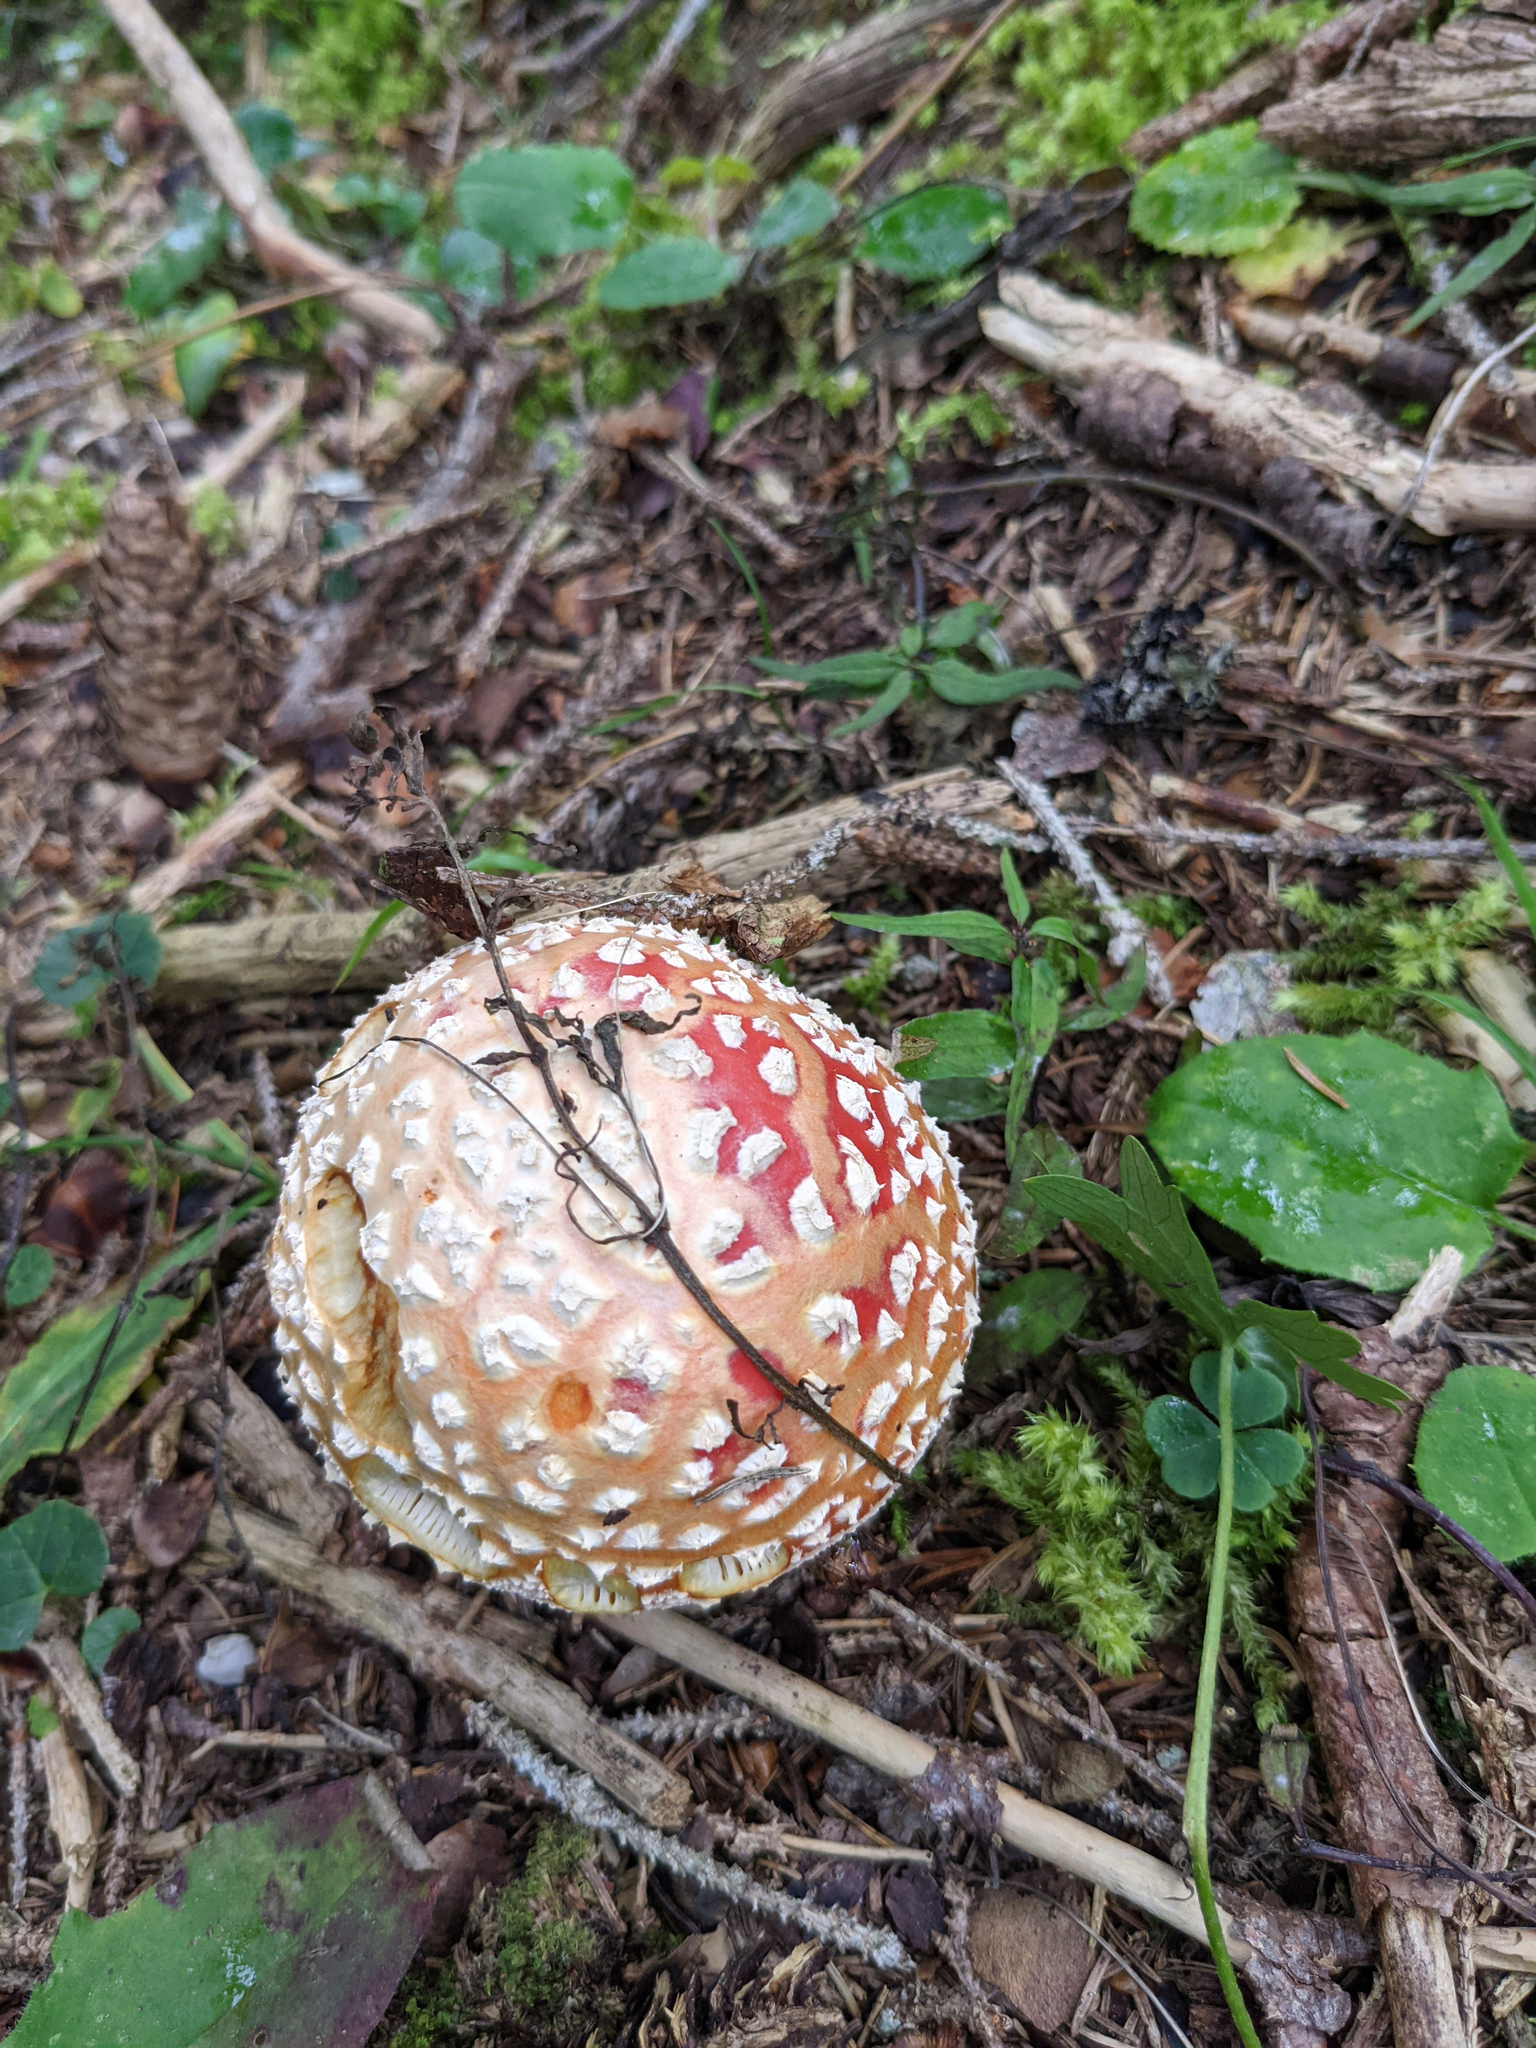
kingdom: Fungi
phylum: Basidiomycota
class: Agaricomycetes
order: Agaricales
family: Amanitaceae
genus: Amanita
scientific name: Amanita muscaria
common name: Fly agaric
